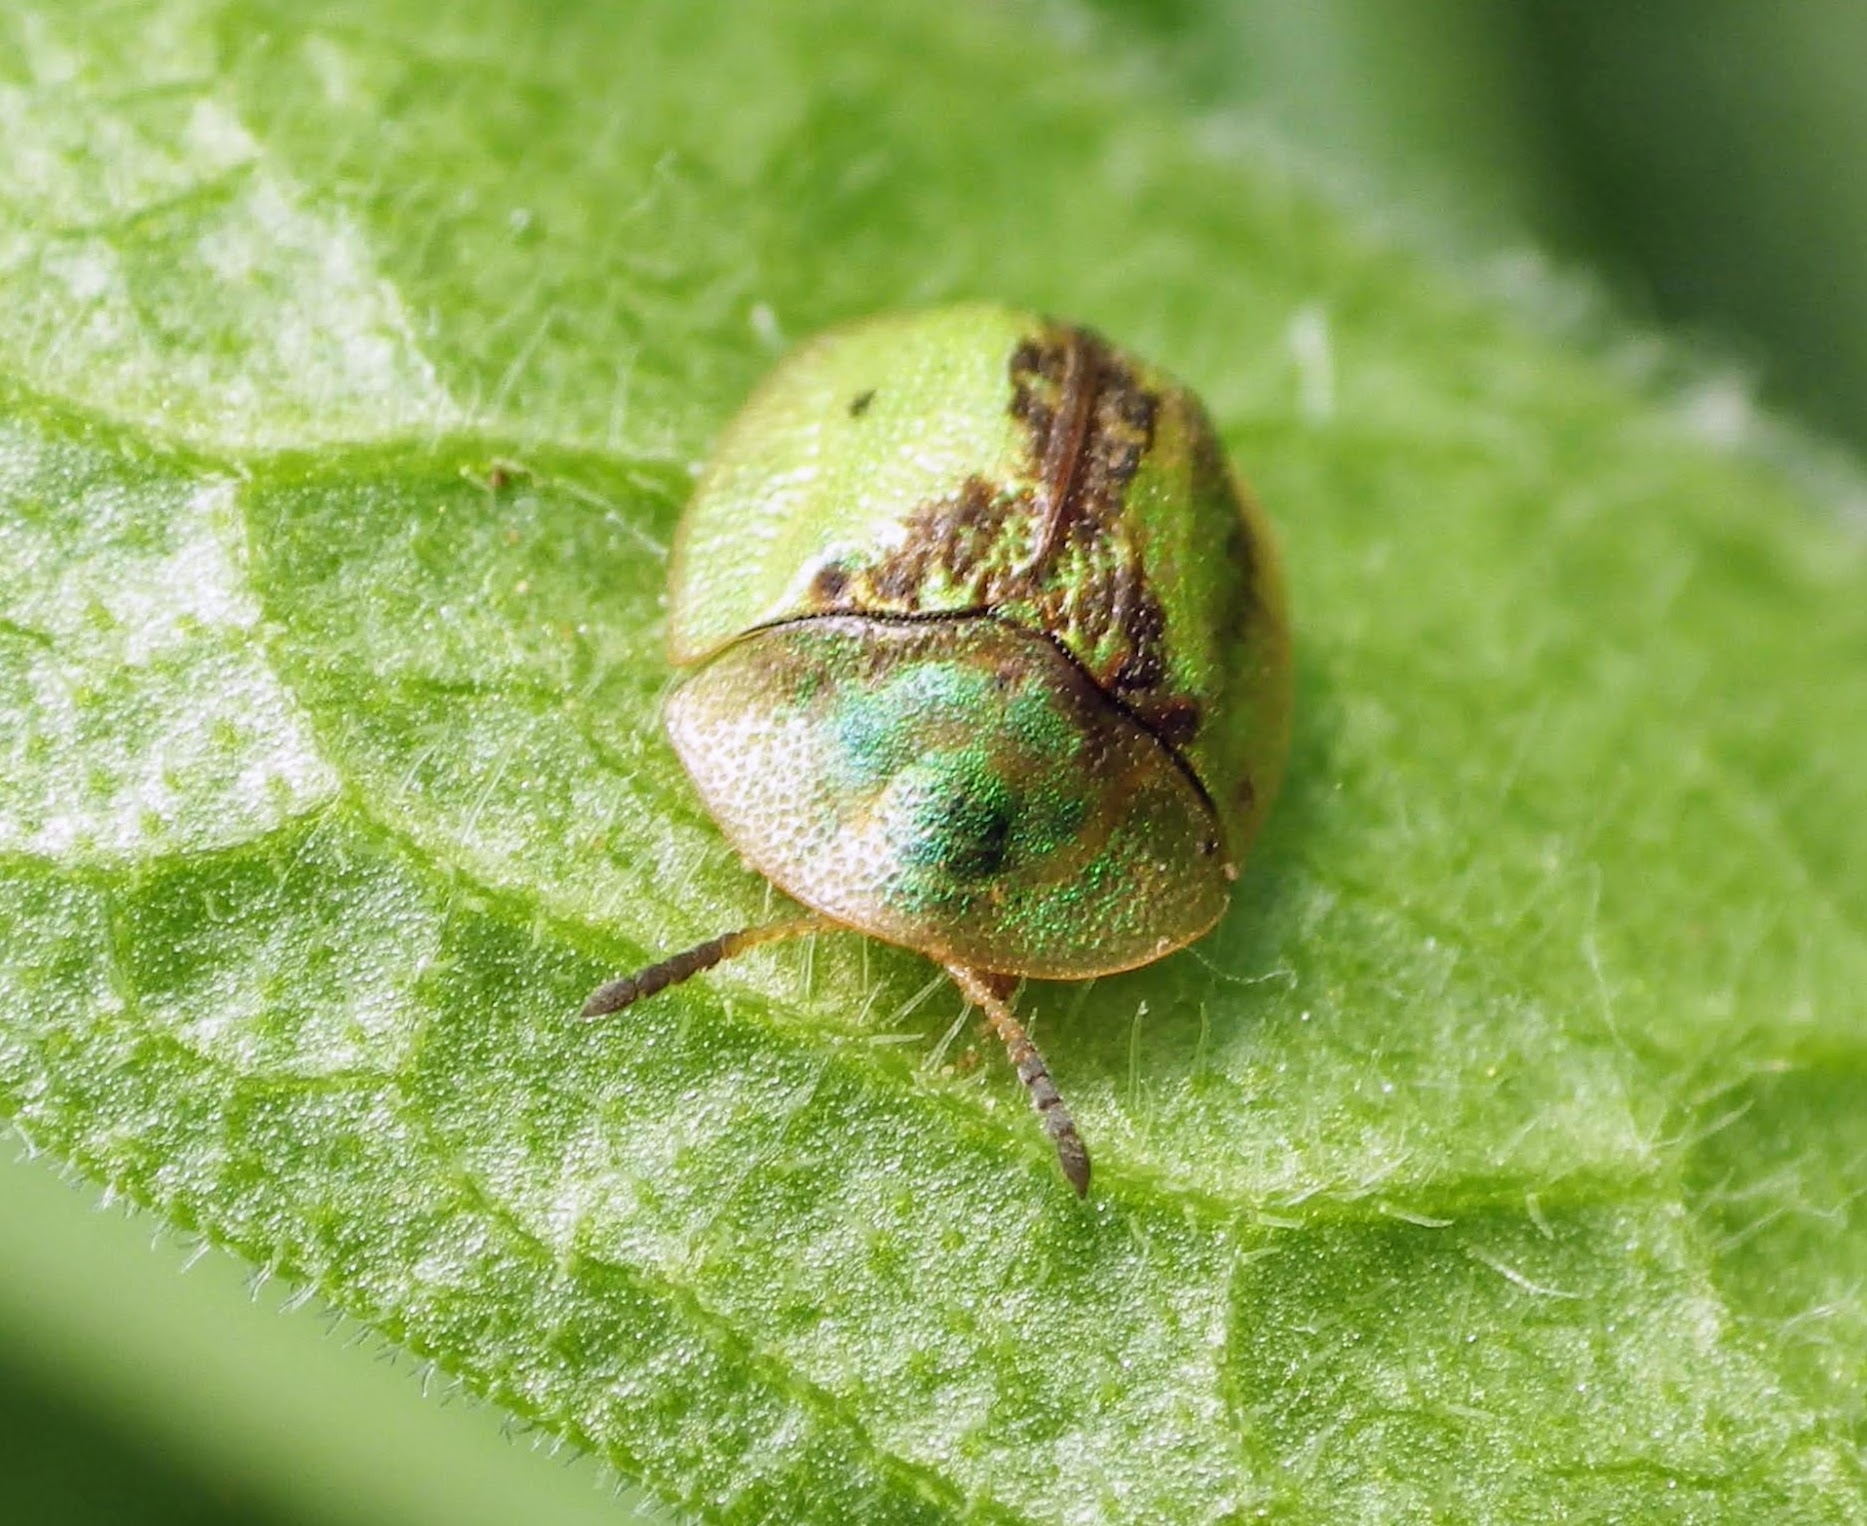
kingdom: Animalia
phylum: Arthropoda
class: Insecta
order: Coleoptera
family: Chrysomelidae
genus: Cassida
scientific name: Cassida vibex
